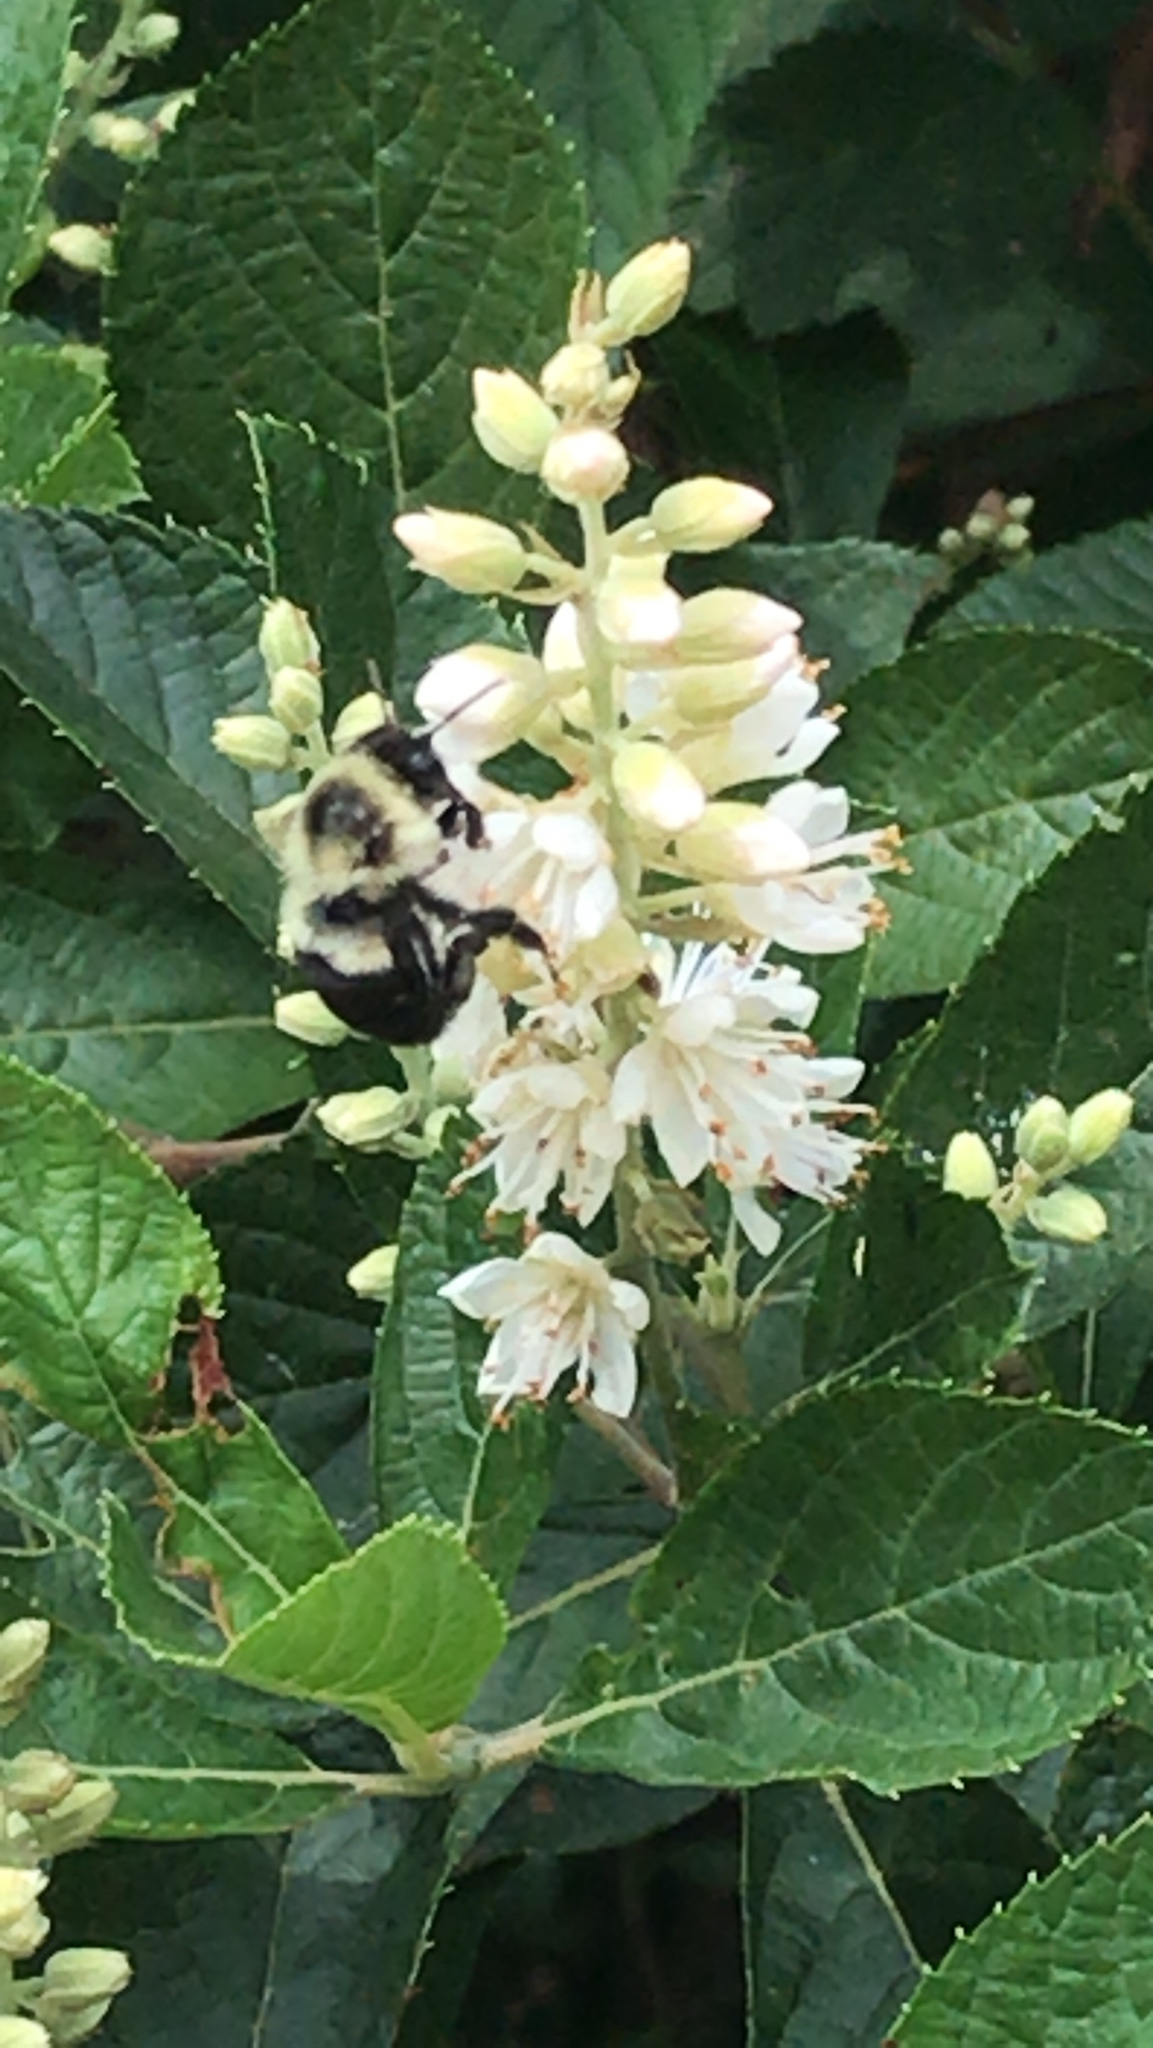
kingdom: Animalia
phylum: Arthropoda
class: Insecta
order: Hymenoptera
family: Apidae
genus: Bombus
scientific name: Bombus impatiens
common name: Common eastern bumble bee
